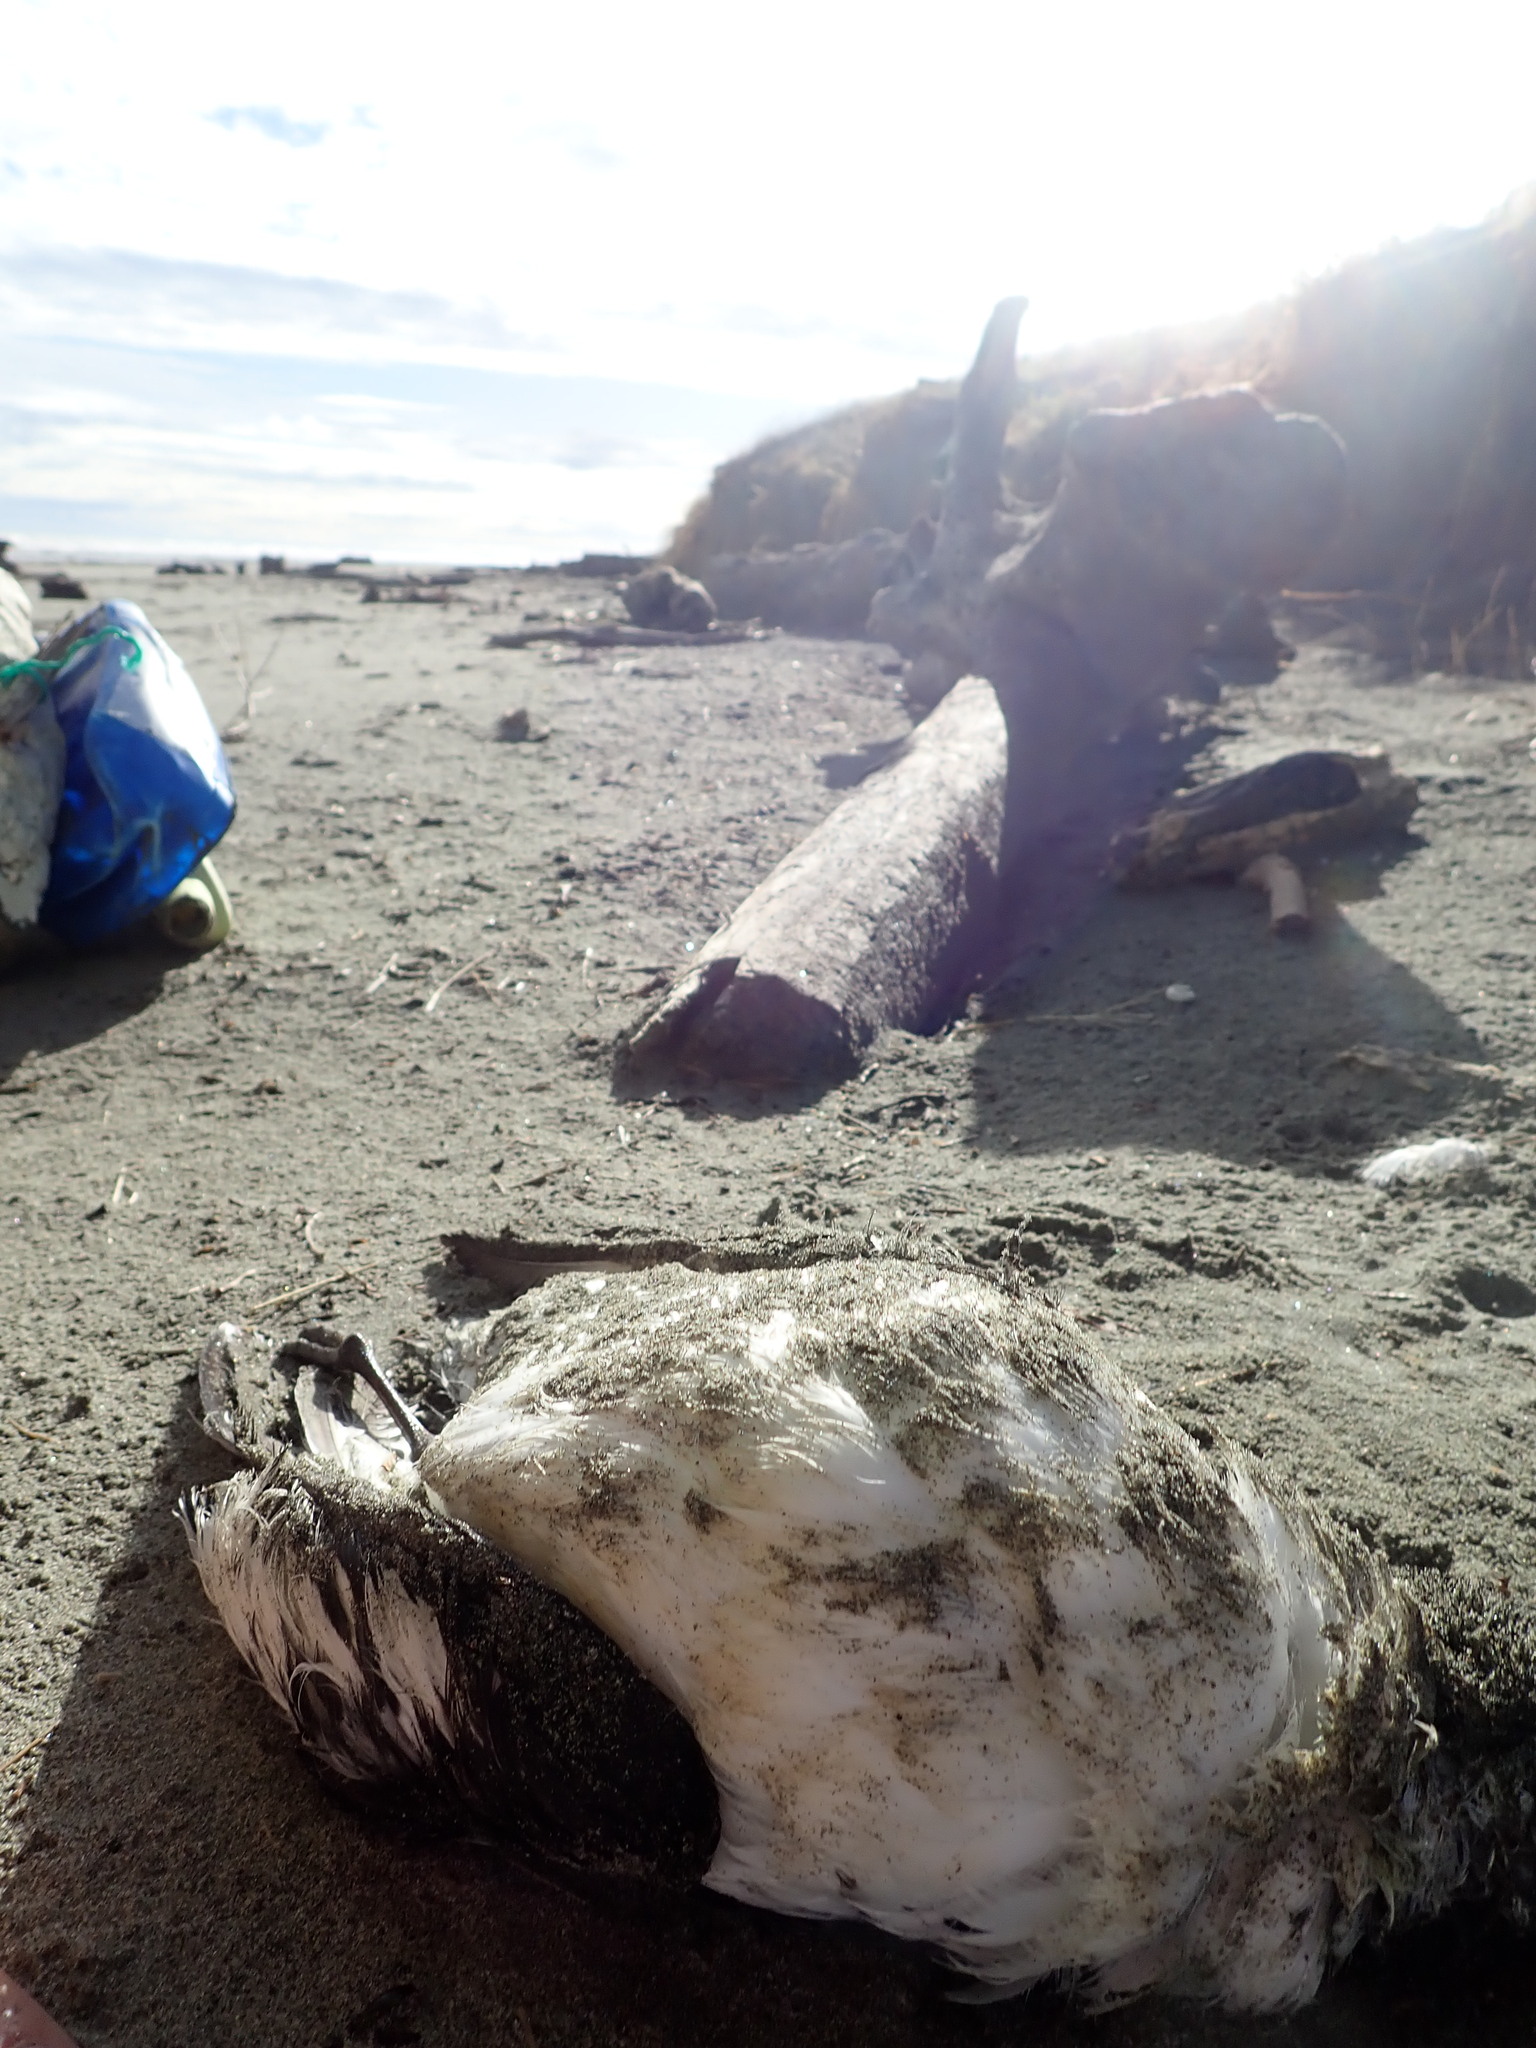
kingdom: Animalia
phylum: Chordata
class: Aves
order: Procellariiformes
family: Procellariidae
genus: Daption
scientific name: Daption capense
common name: Cape petrel
